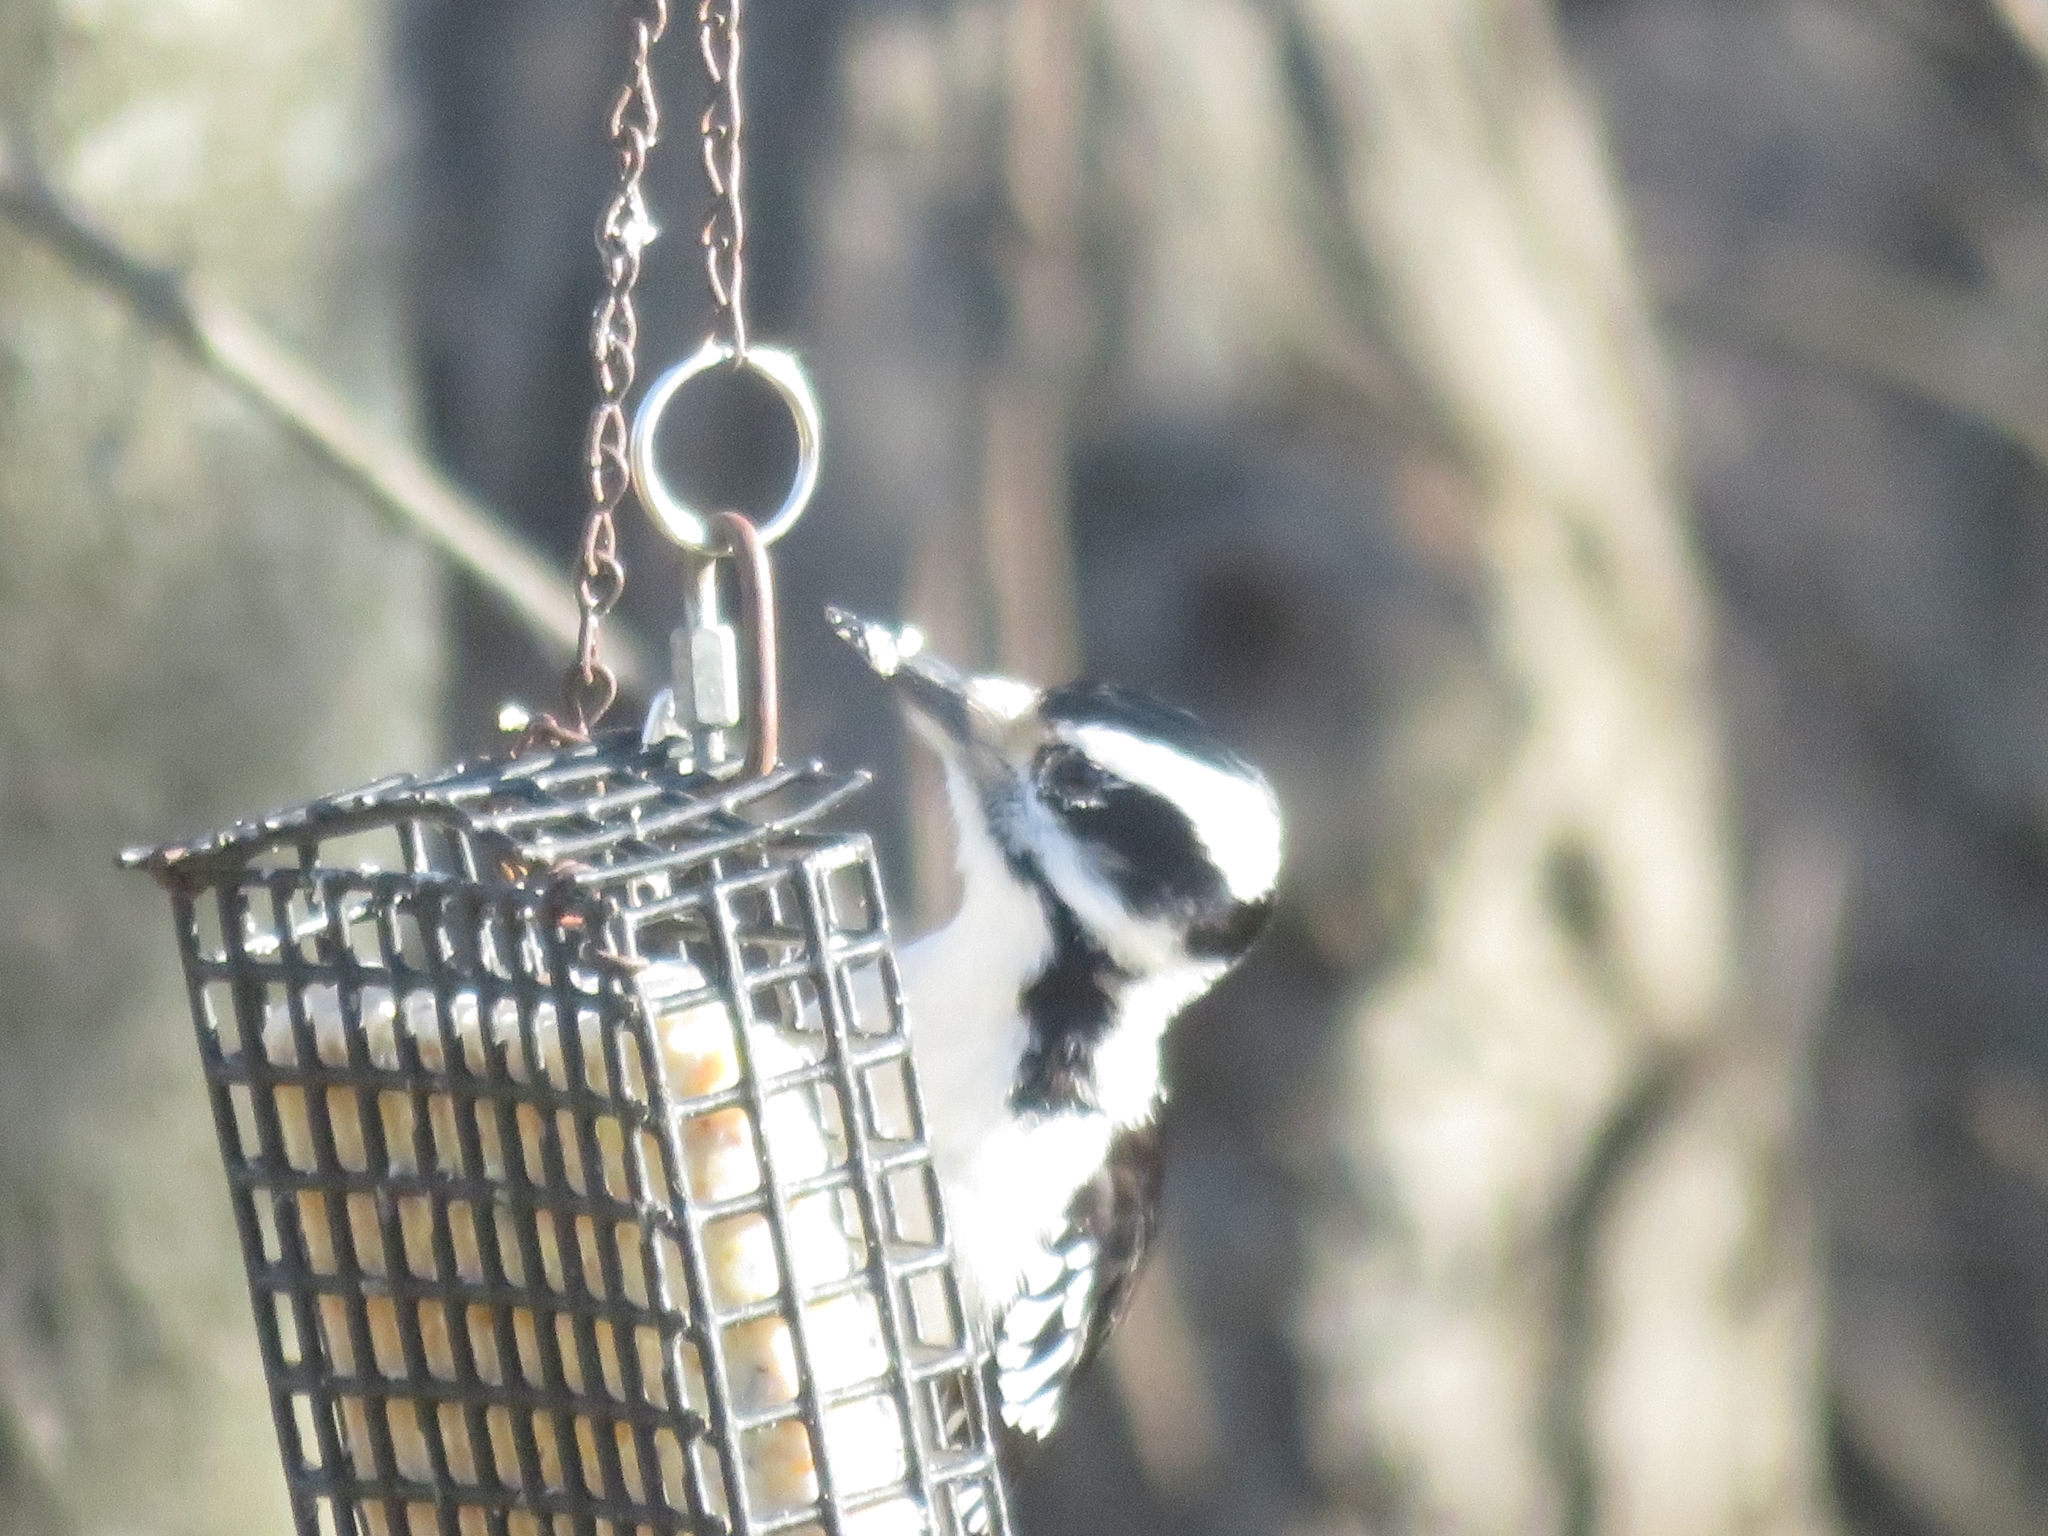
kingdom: Animalia
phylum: Chordata
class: Aves
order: Piciformes
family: Picidae
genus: Leuconotopicus
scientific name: Leuconotopicus villosus
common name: Hairy woodpecker
